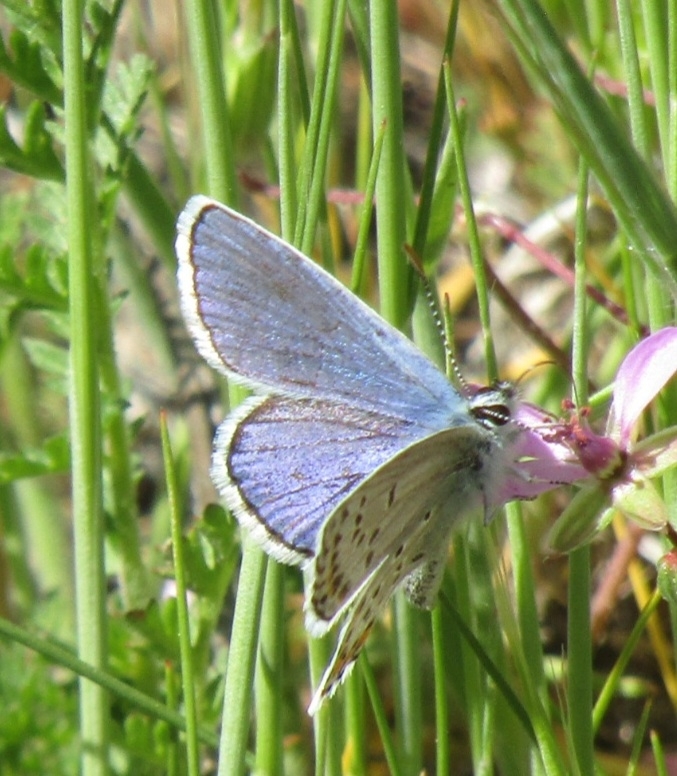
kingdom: Animalia
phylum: Arthropoda
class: Insecta
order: Lepidoptera
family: Lycaenidae
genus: Lycaeides
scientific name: Lycaeides melissa
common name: Melissa blue
